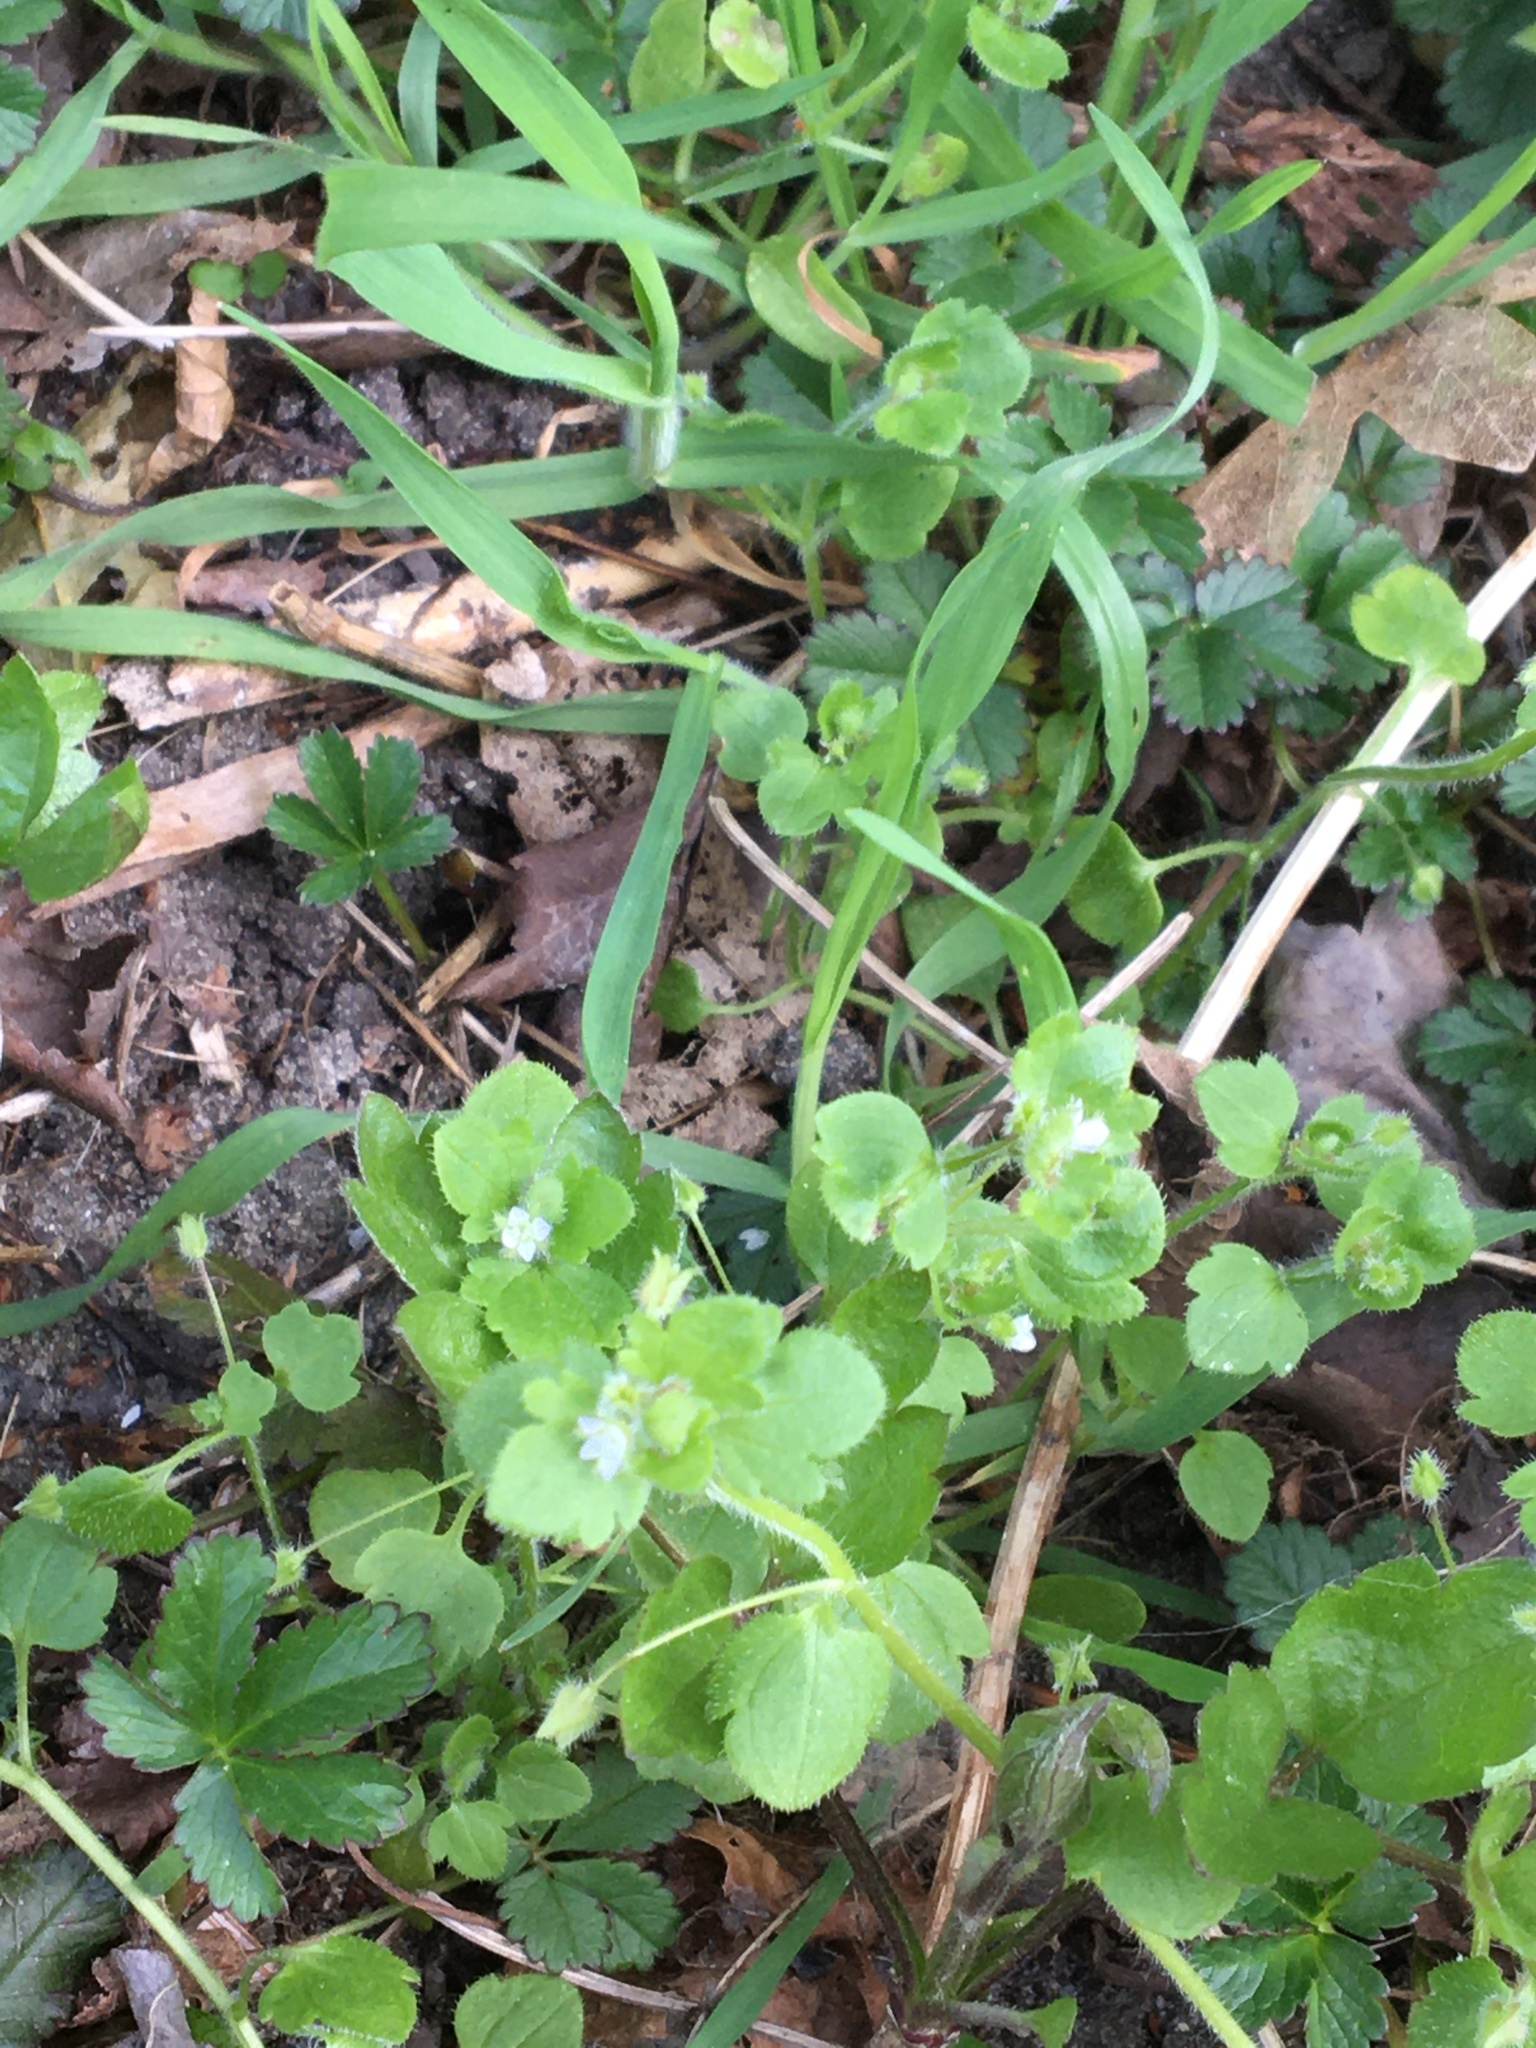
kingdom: Plantae
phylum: Tracheophyta
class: Magnoliopsida
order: Lamiales
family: Plantaginaceae
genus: Veronica
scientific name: Veronica sublobata
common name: False ivy-leaved speedwell
